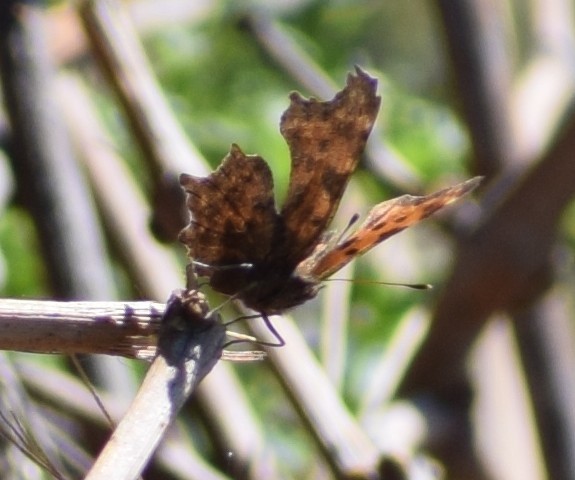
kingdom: Animalia
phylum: Arthropoda
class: Insecta
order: Lepidoptera
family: Nymphalidae
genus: Polygonia
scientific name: Polygonia c-album
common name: Comma
